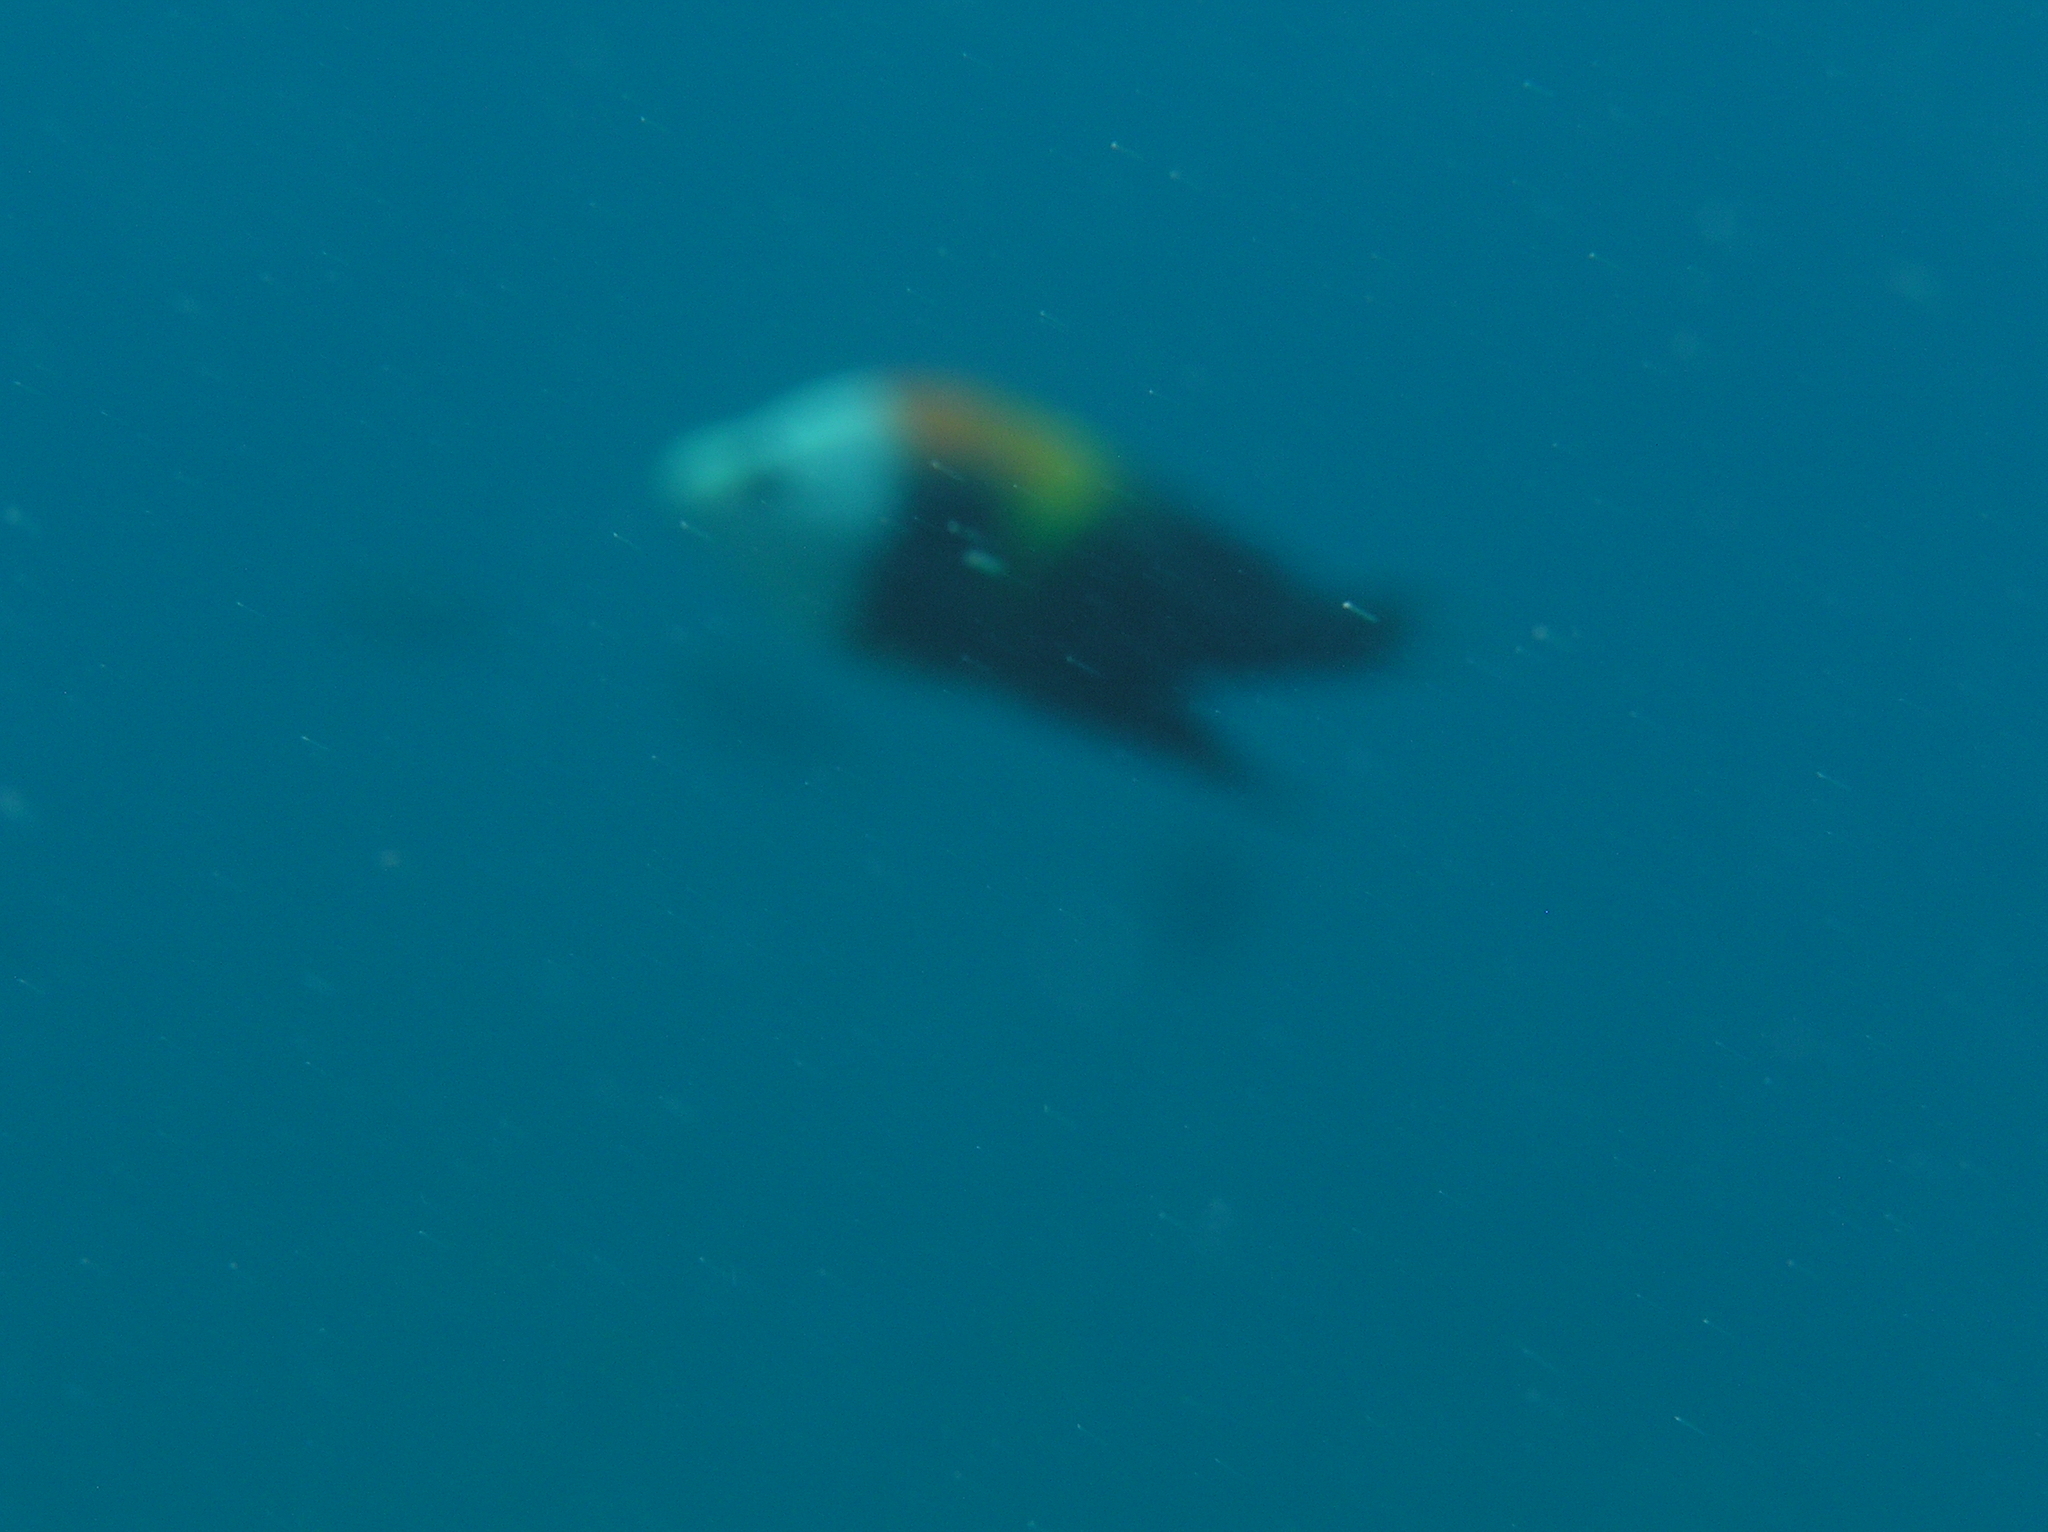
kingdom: Animalia
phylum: Chordata
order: Perciformes
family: Labridae
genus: Epibulus
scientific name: Epibulus insidiator
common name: Slingjaw wrasse
